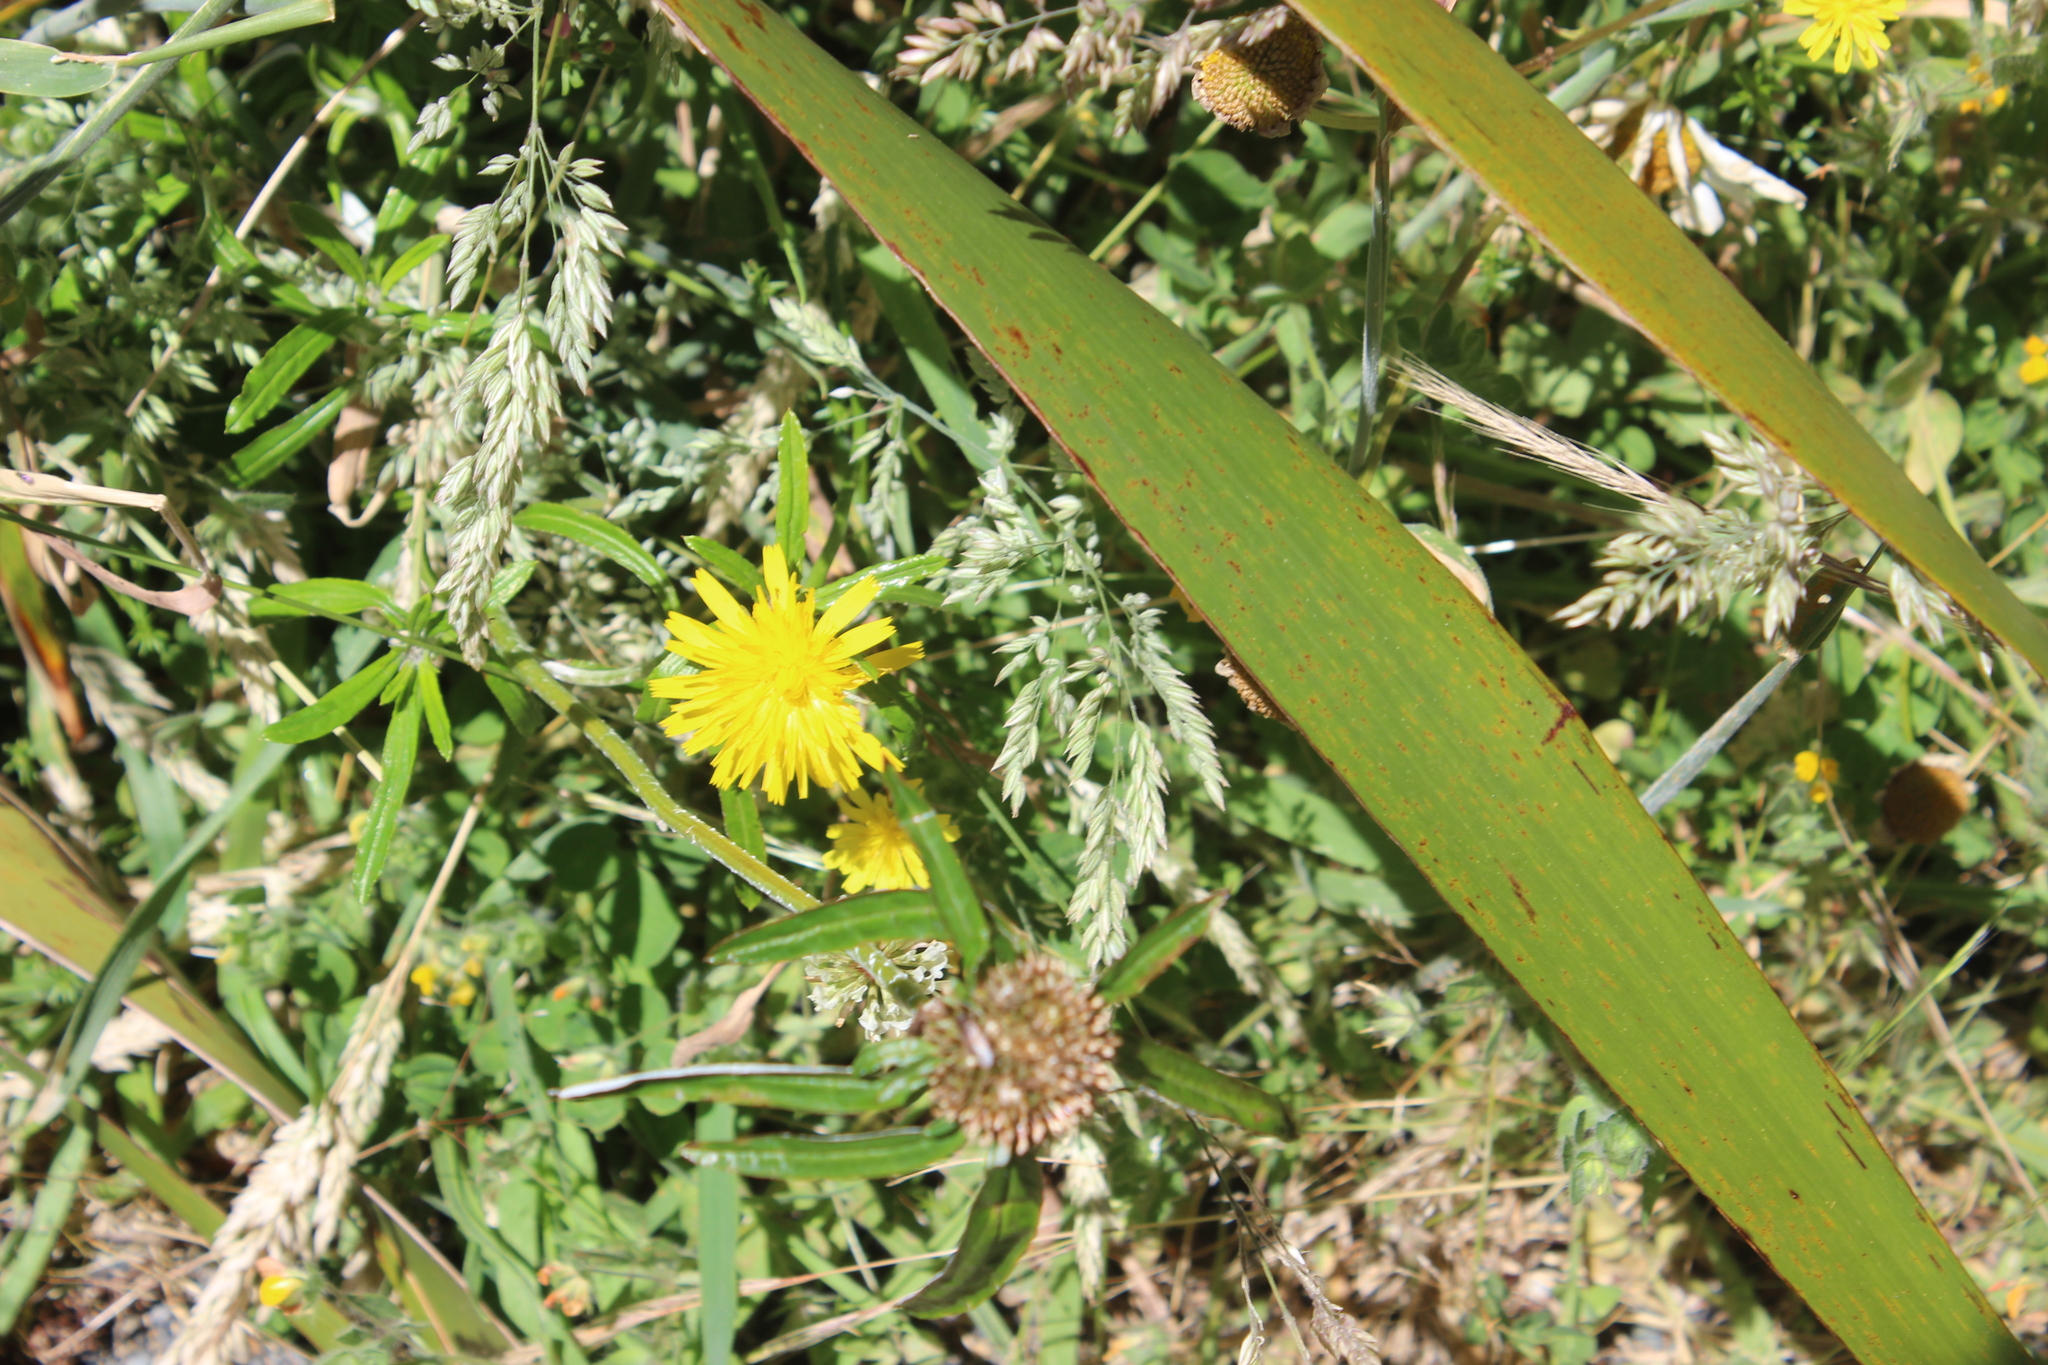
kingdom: Plantae
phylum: Tracheophyta
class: Magnoliopsida
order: Asterales
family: Asteraceae
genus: Euchiton
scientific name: Euchiton sphaericus
